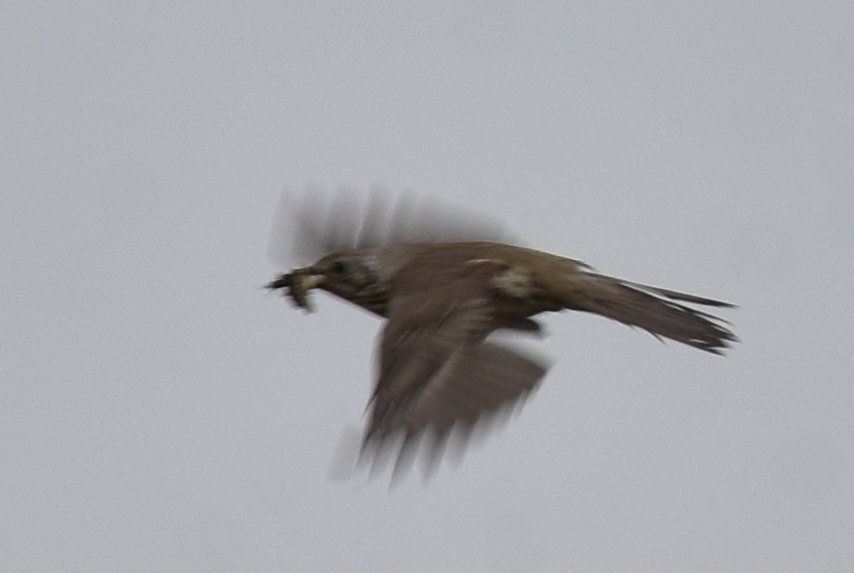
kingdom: Animalia
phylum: Chordata
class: Aves
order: Passeriformes
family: Turdidae
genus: Turdus
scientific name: Turdus viscivorus
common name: Mistle thrush
